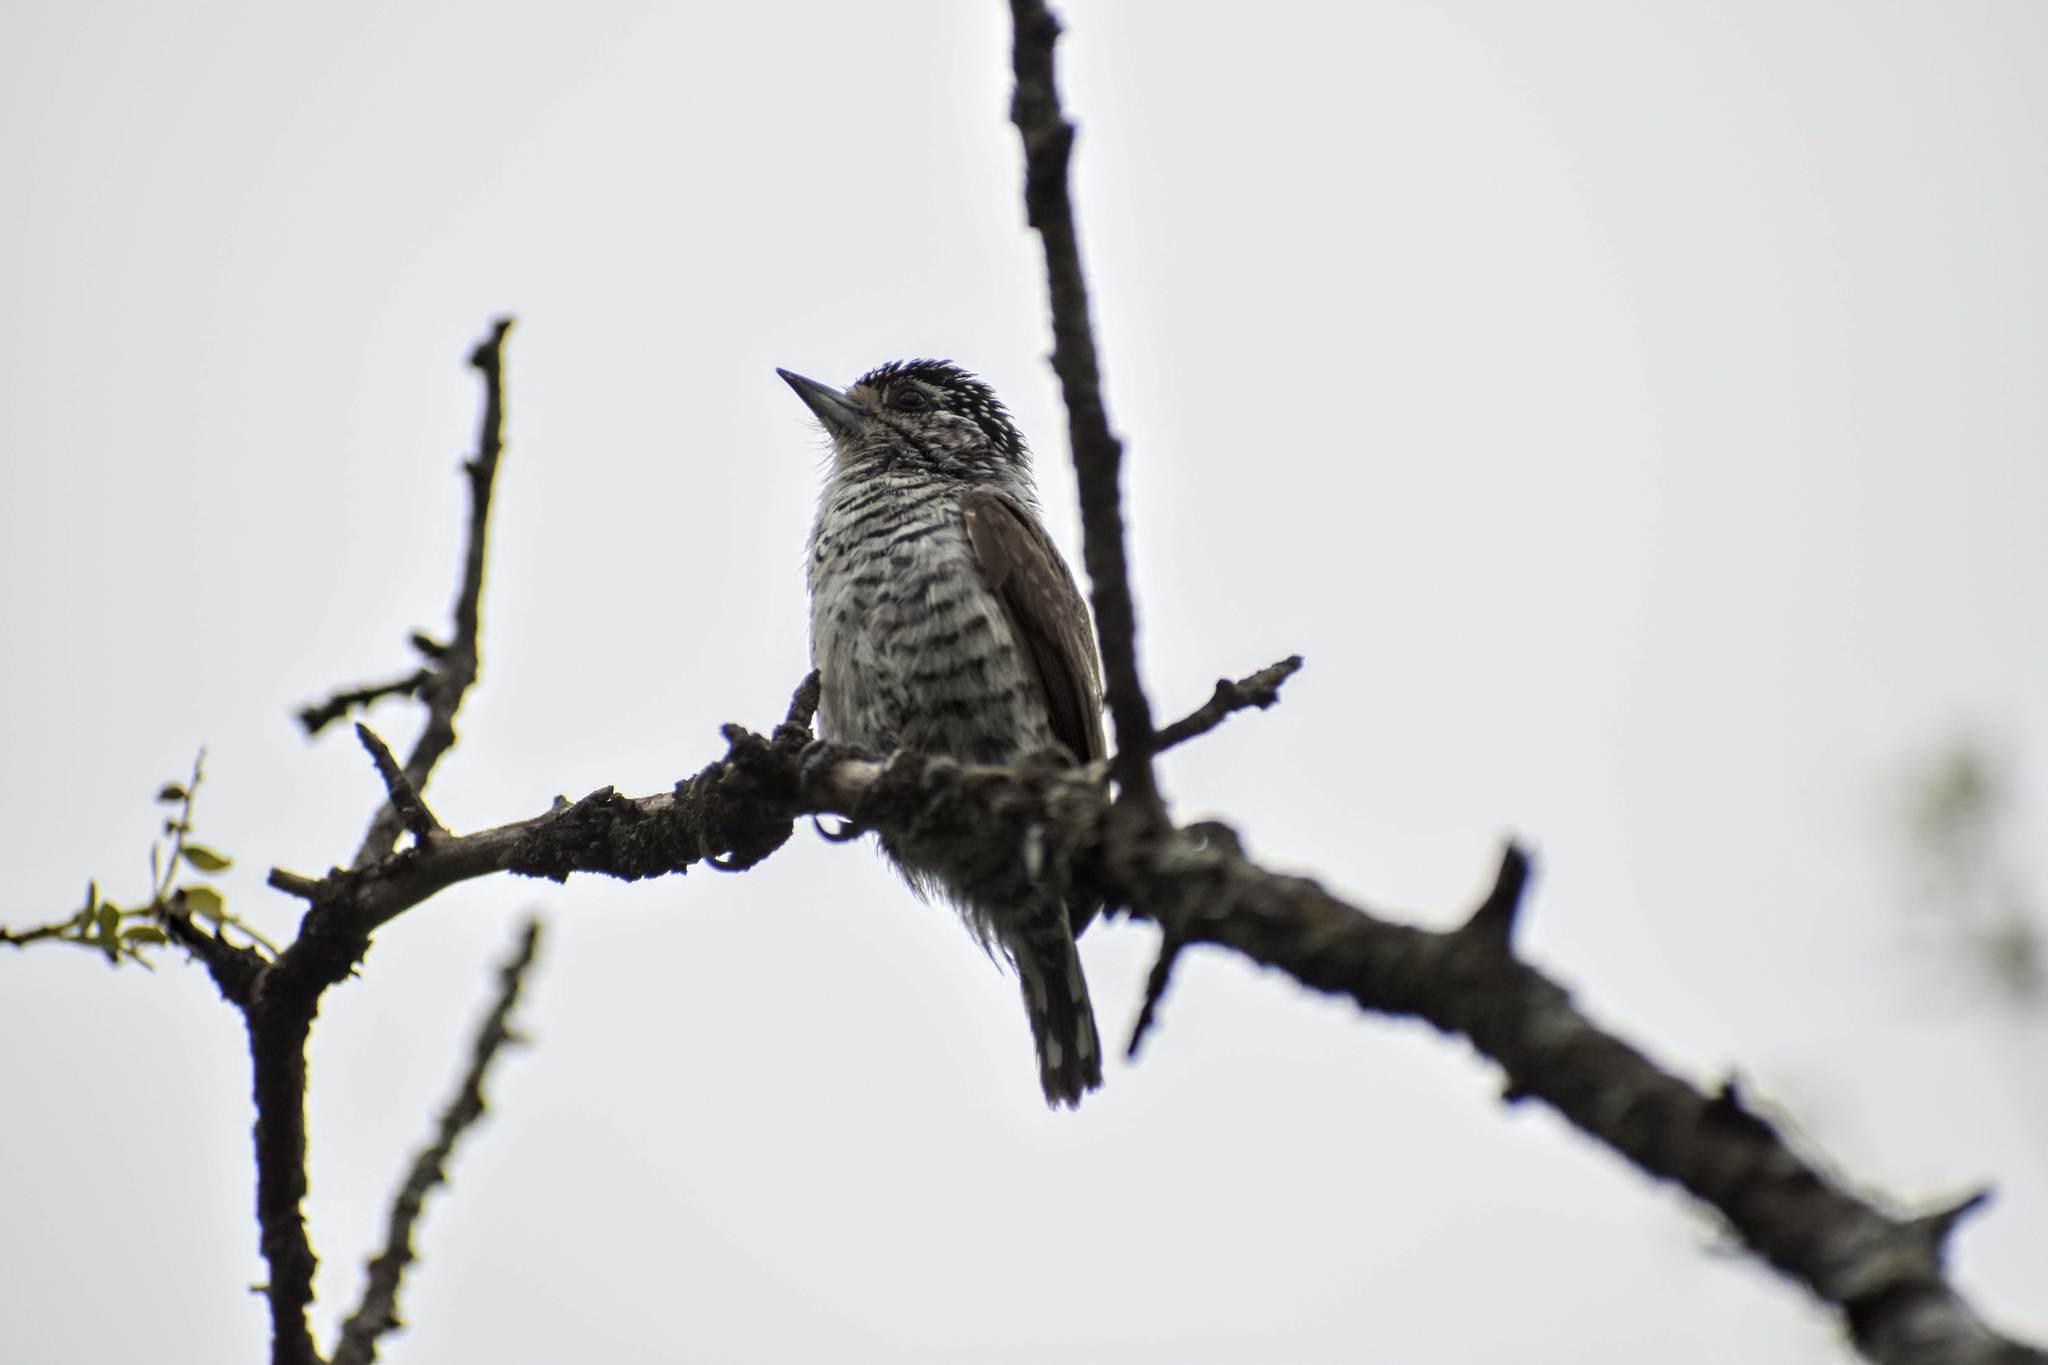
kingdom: Animalia
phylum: Chordata
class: Aves
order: Piciformes
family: Picidae
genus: Picumnus
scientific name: Picumnus cirratus
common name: White-barred piculet
